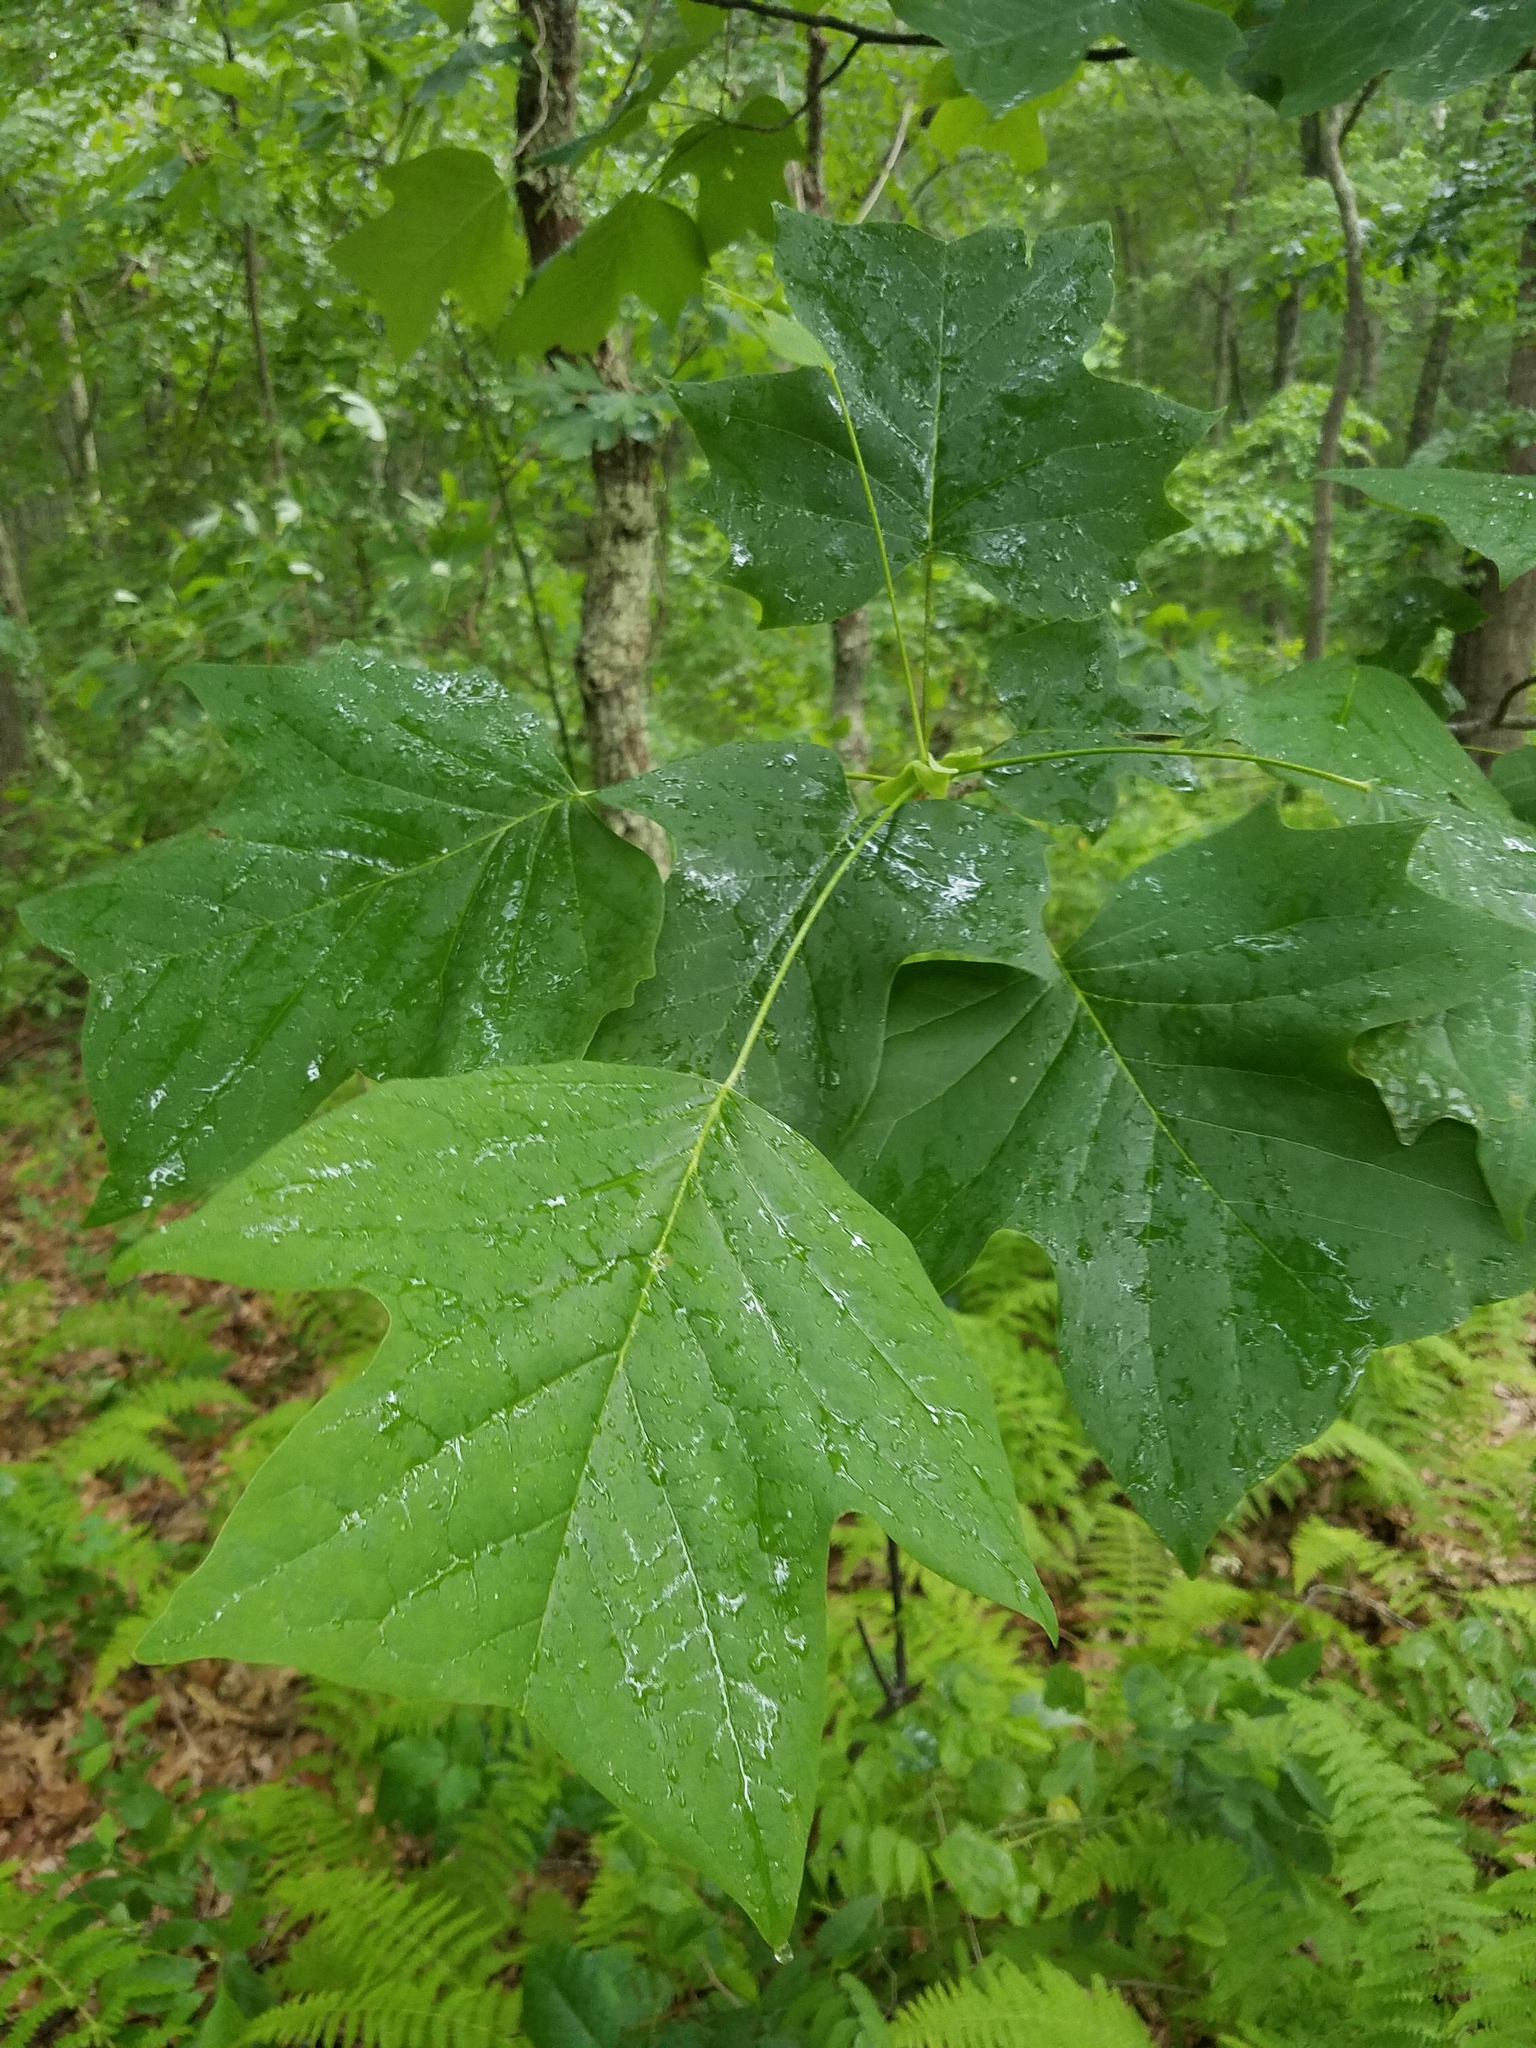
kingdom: Plantae
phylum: Tracheophyta
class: Magnoliopsida
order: Magnoliales
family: Magnoliaceae
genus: Liriodendron
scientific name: Liriodendron tulipifera
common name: Tulip tree
